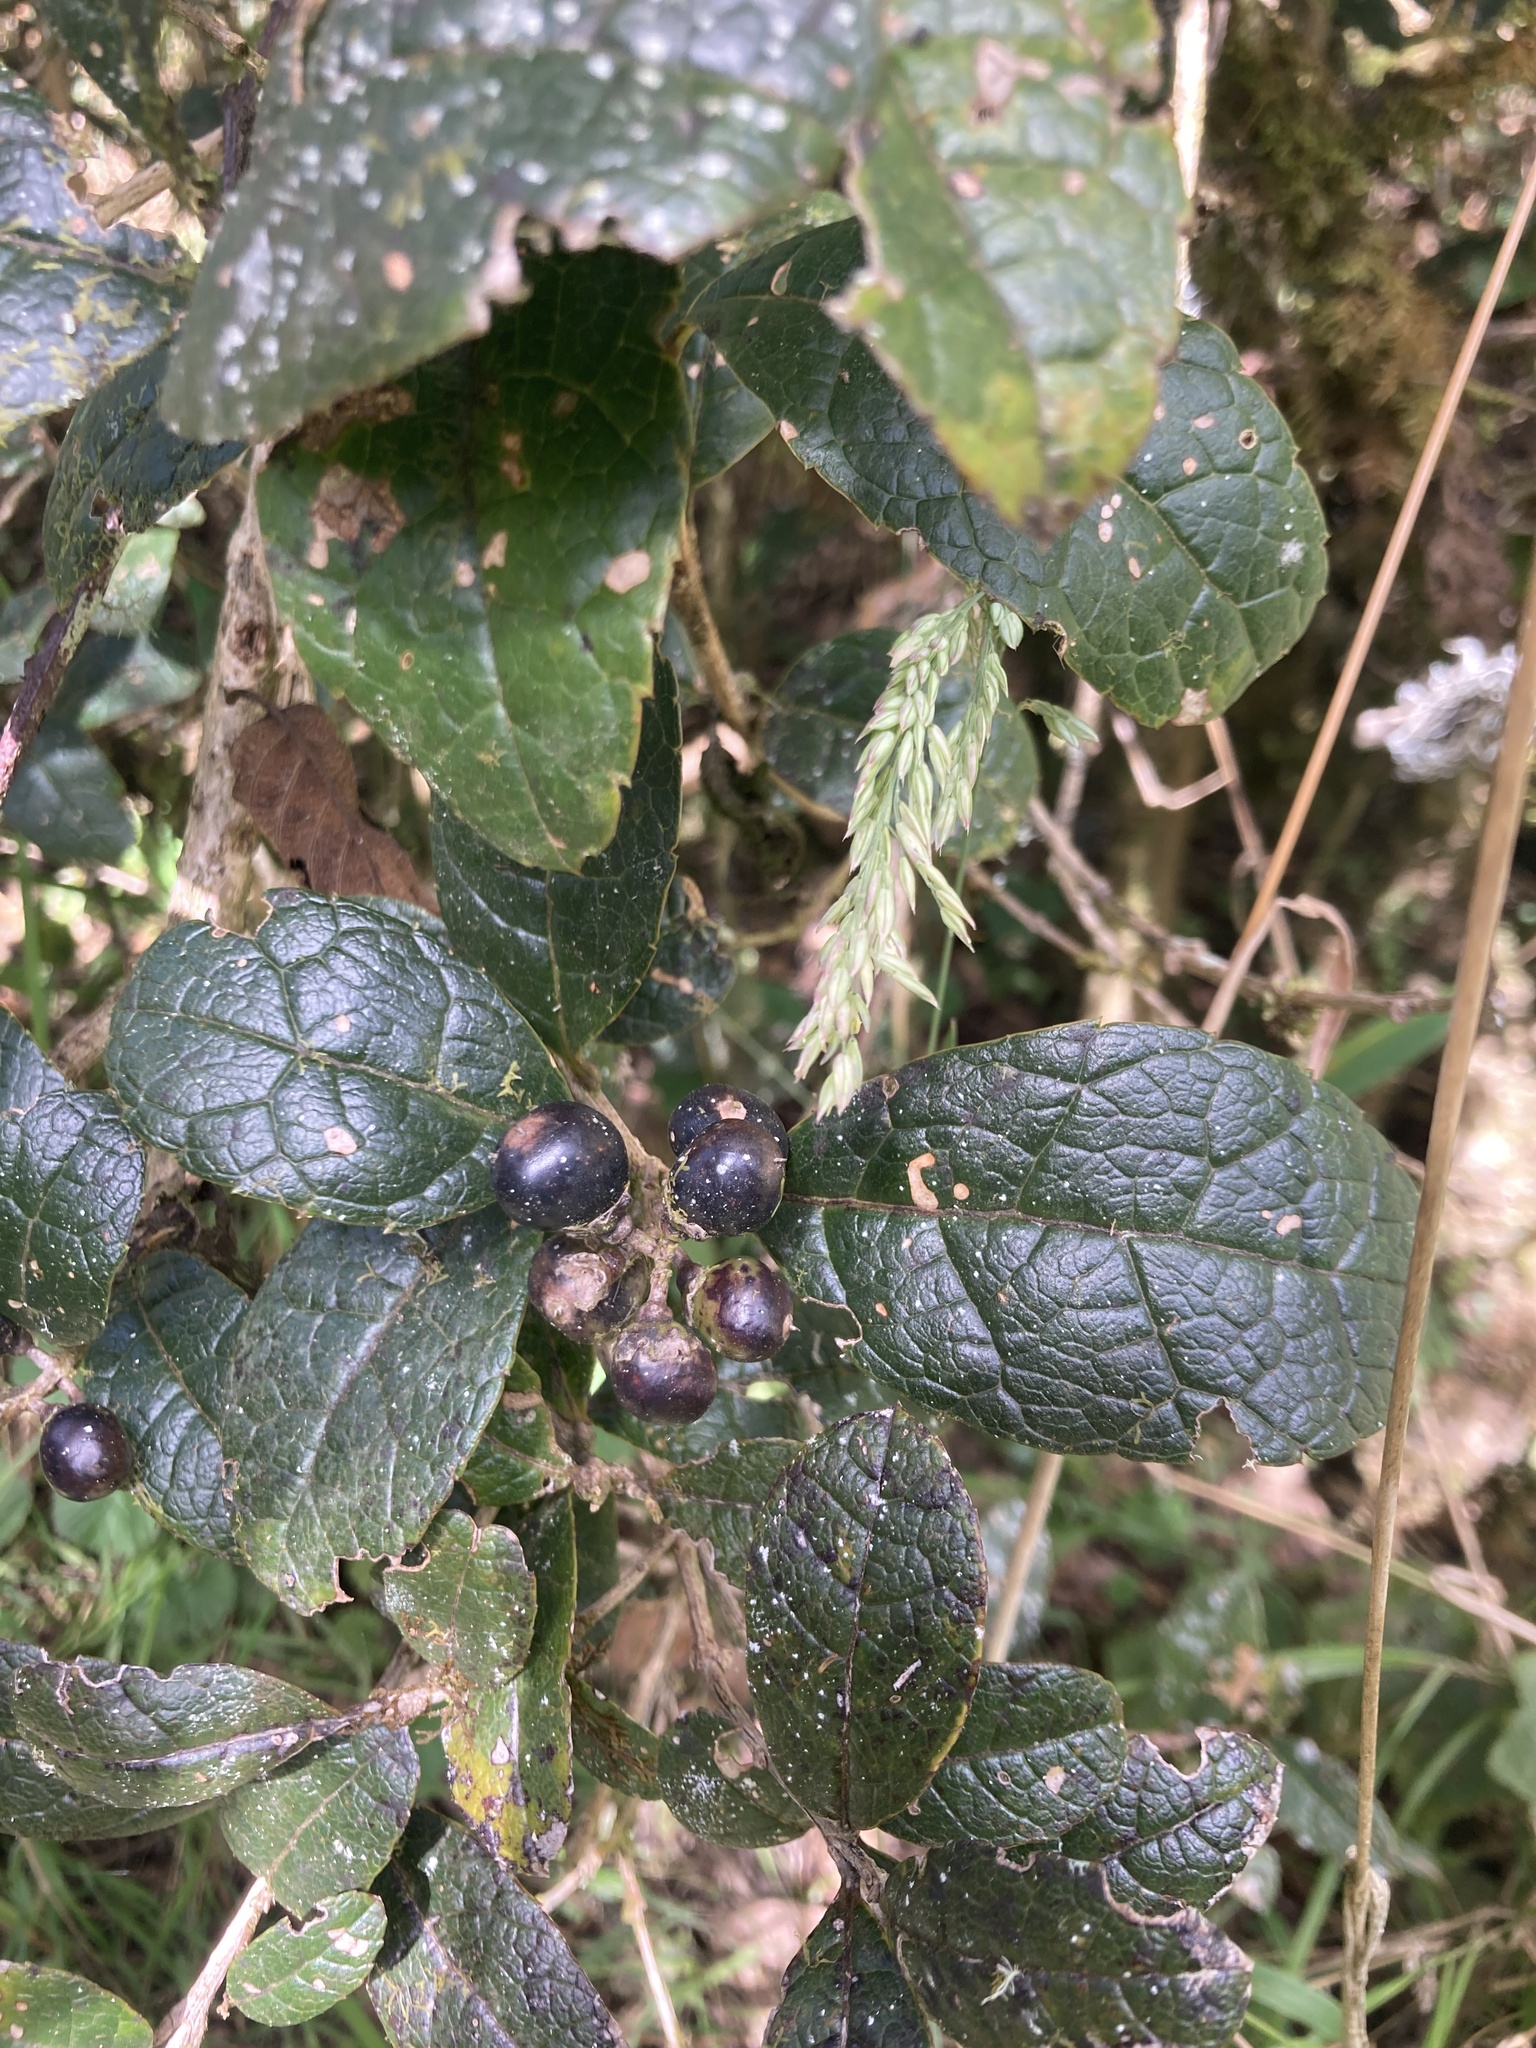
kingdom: Plantae
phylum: Tracheophyta
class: Magnoliopsida
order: Lamiales
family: Verbenaceae
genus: Citharexylum
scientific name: Citharexylum reticulatum
